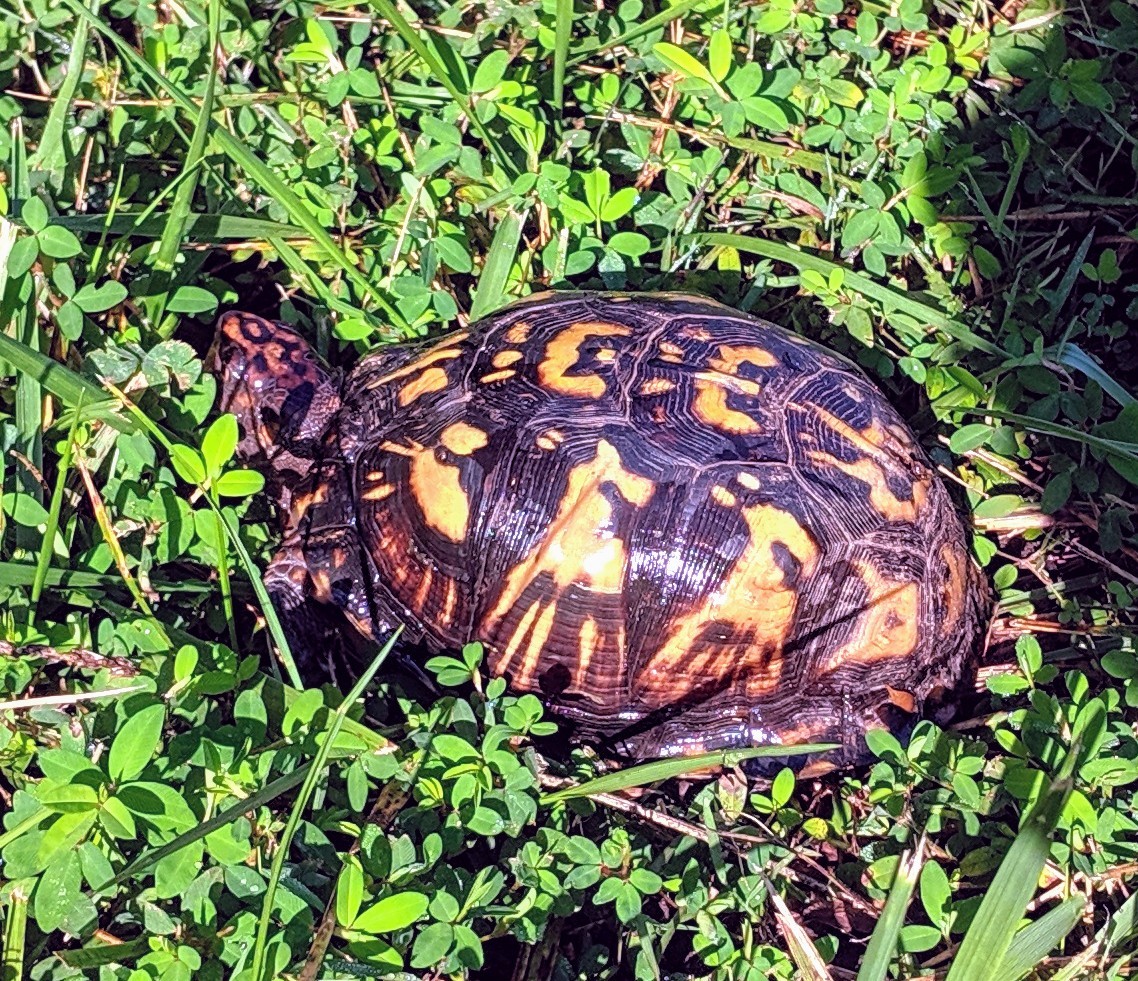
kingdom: Animalia
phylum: Chordata
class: Testudines
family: Emydidae
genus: Terrapene
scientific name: Terrapene carolina
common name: Common box turtle
